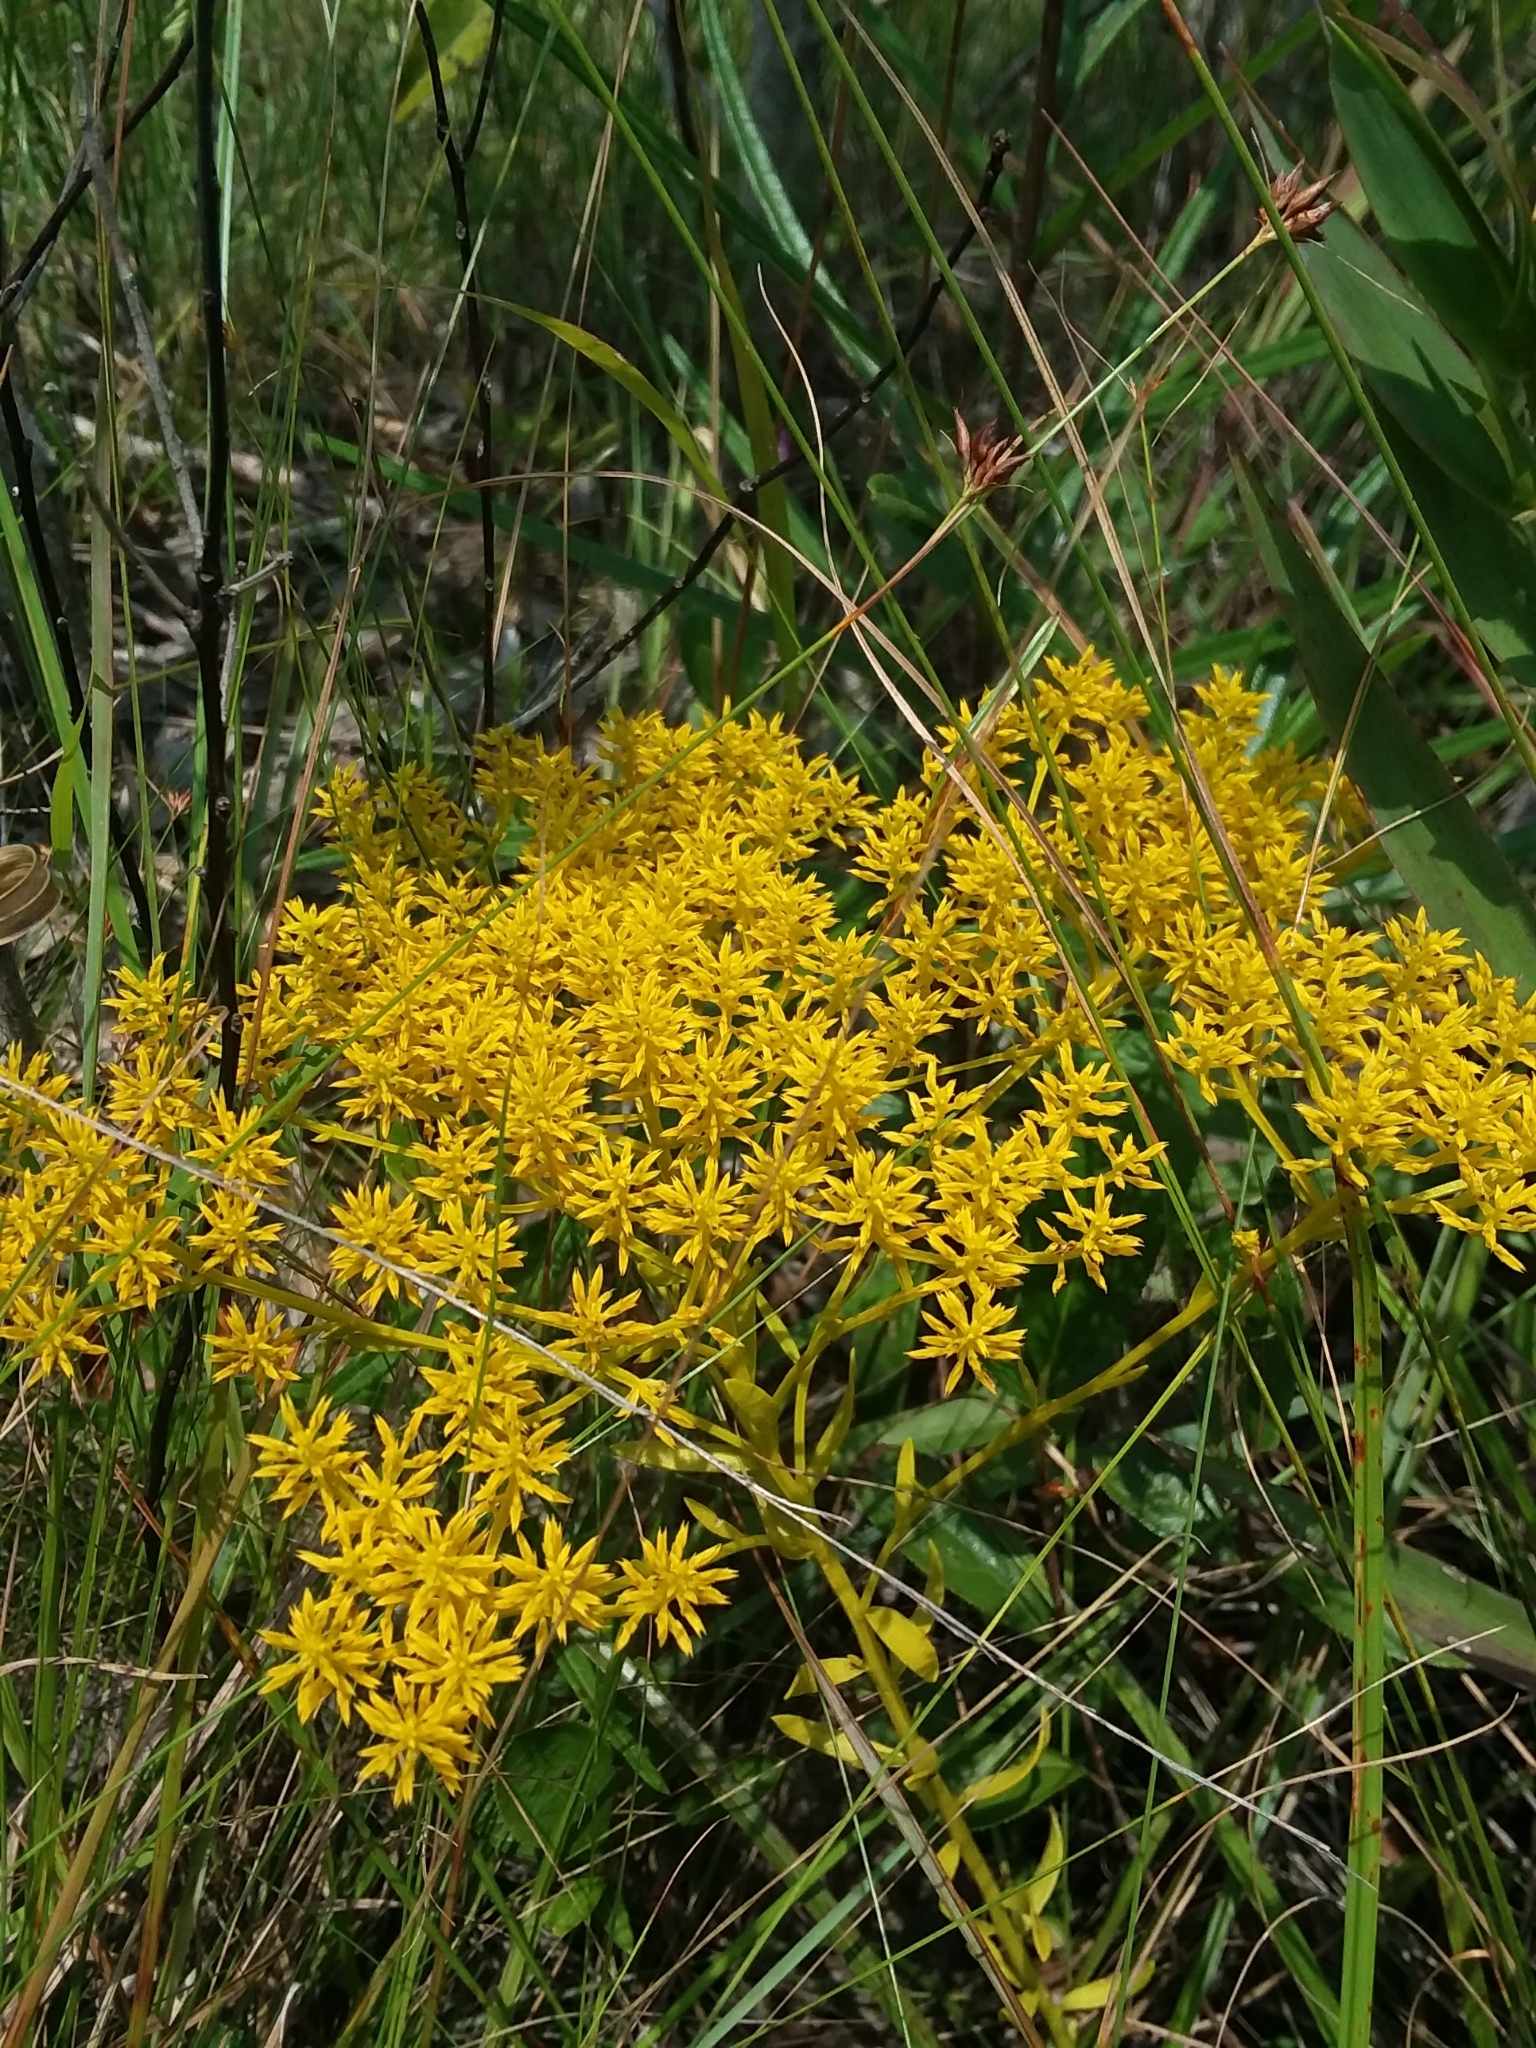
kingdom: Plantae
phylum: Tracheophyta
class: Magnoliopsida
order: Fabales
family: Polygalaceae
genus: Polygala
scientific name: Polygala ramosa
